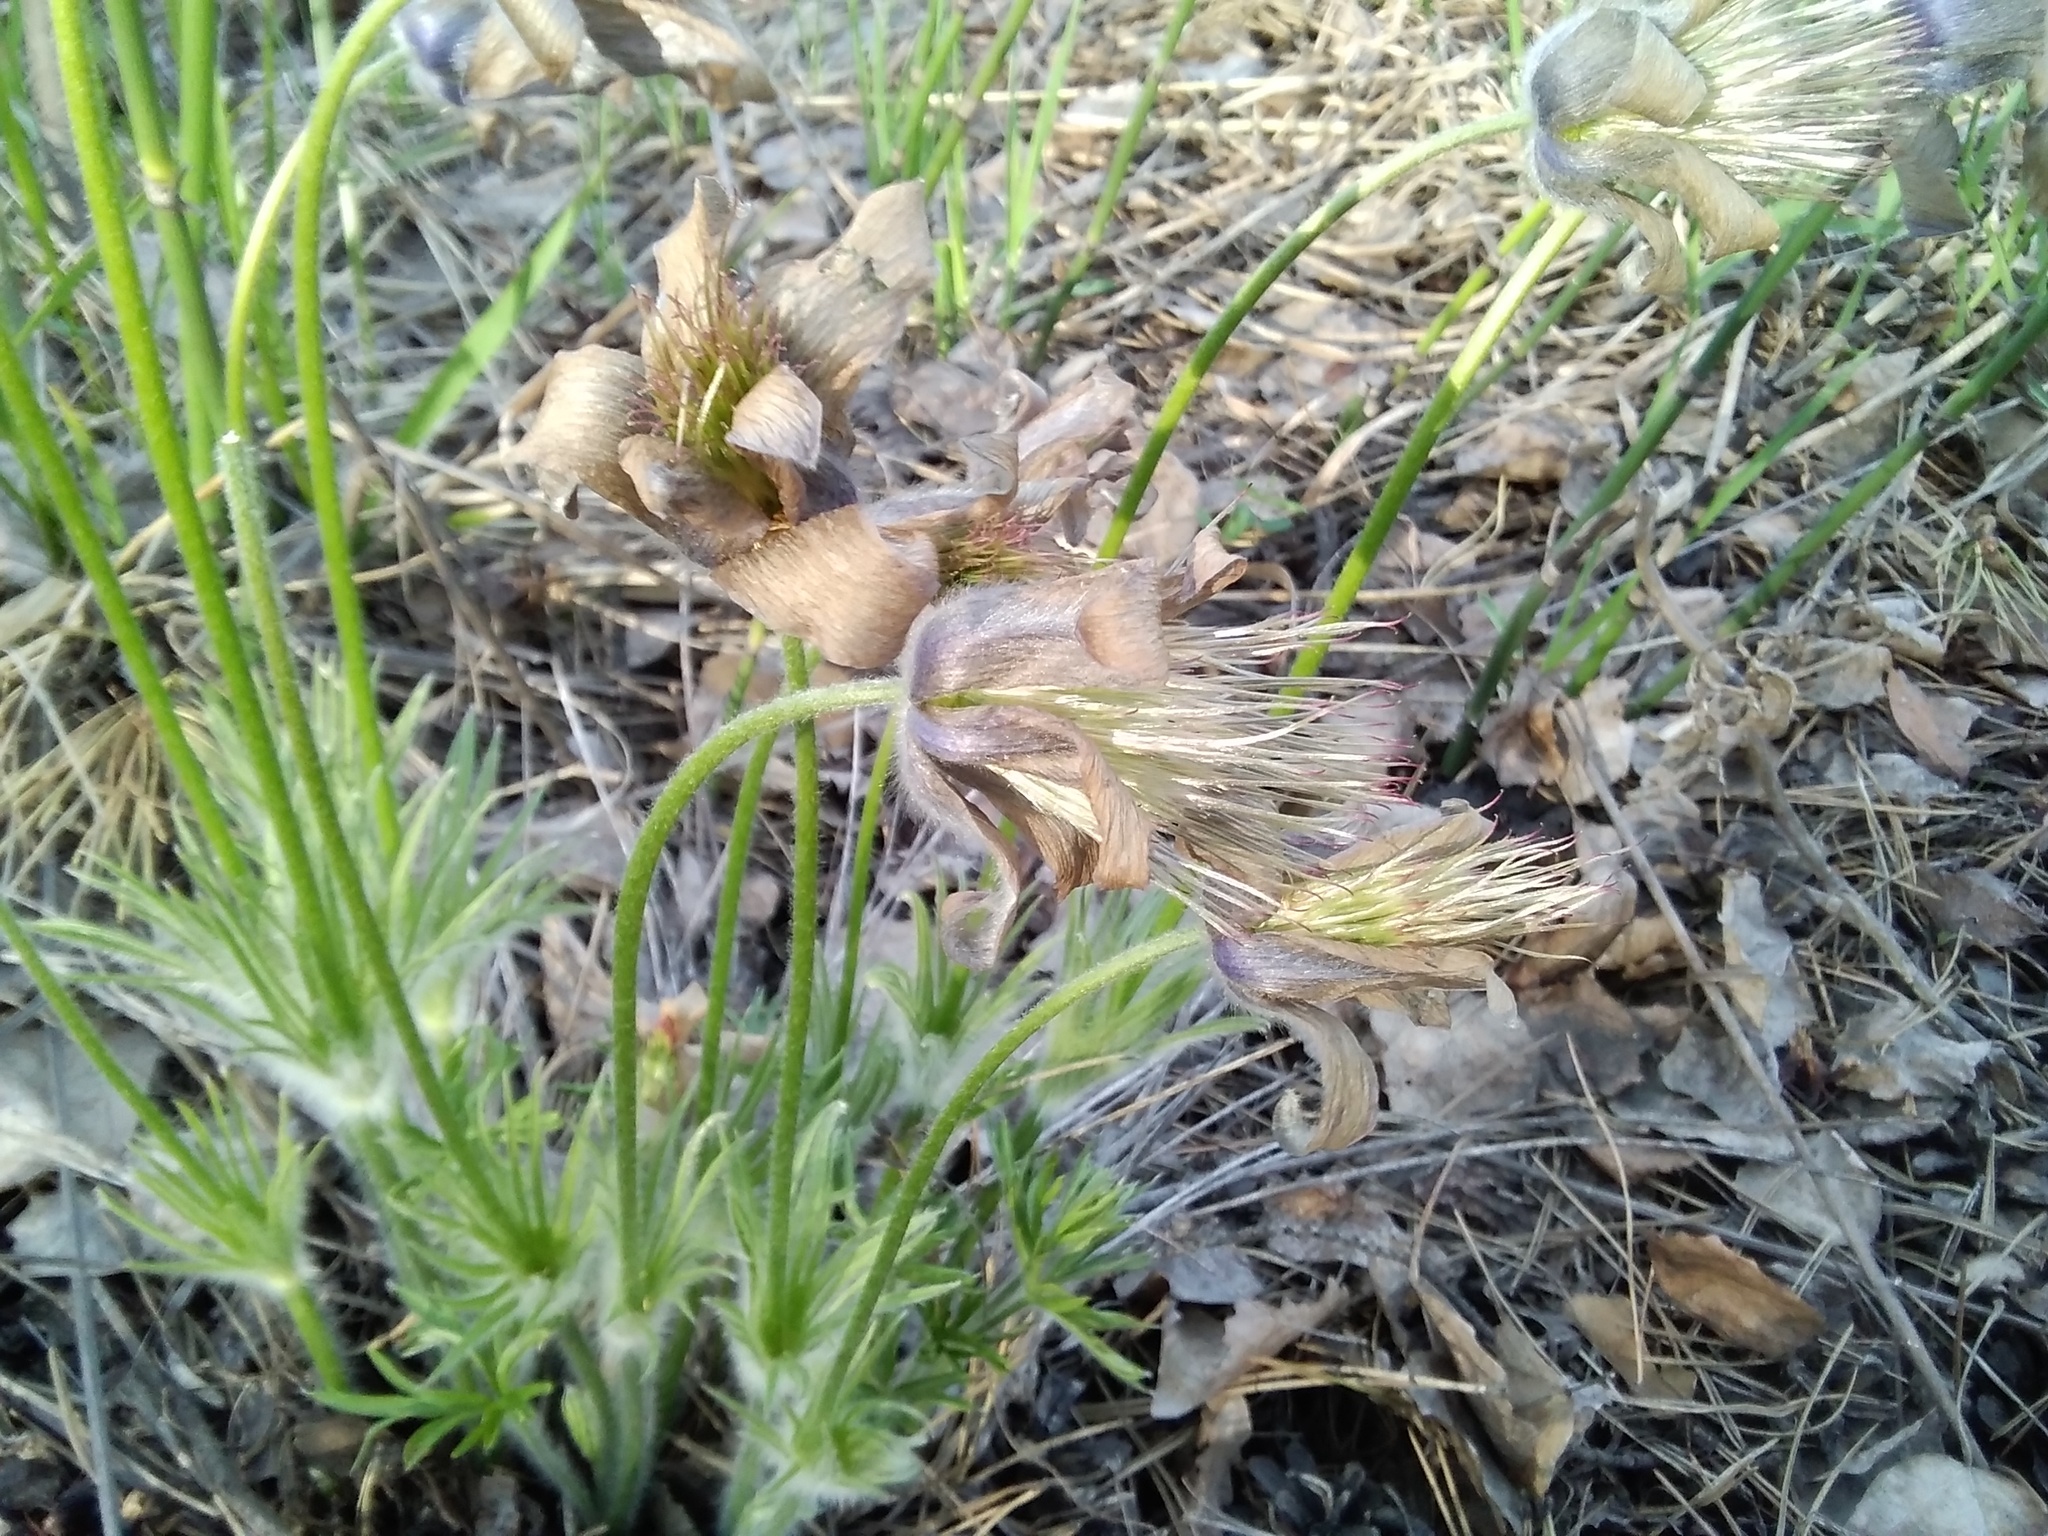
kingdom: Plantae
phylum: Tracheophyta
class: Magnoliopsida
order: Ranunculales
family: Ranunculaceae
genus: Pulsatilla
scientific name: Pulsatilla patens
